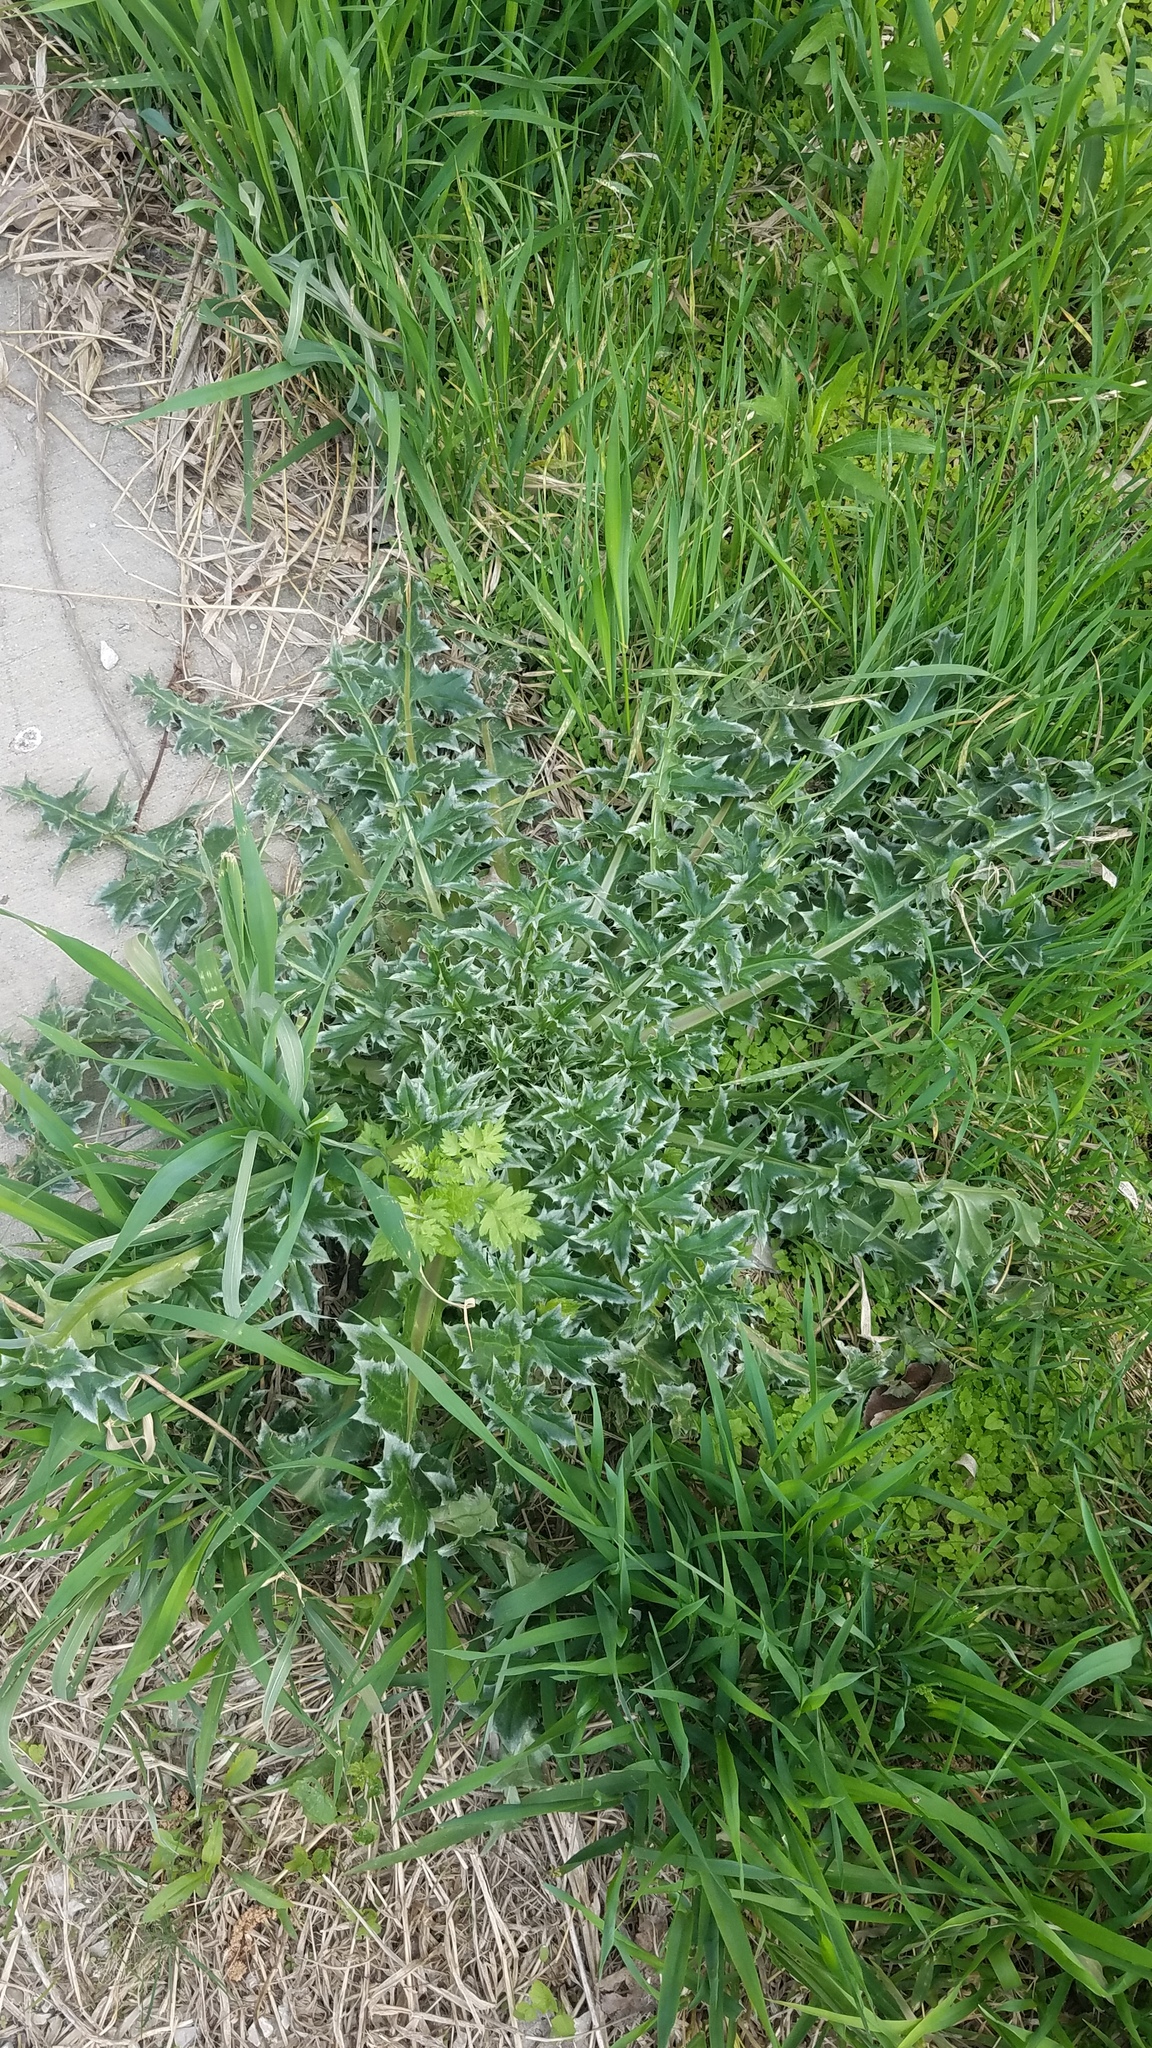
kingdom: Plantae
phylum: Tracheophyta
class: Magnoliopsida
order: Asterales
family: Asteraceae
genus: Carduus
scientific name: Carduus nutans
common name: Musk thistle
